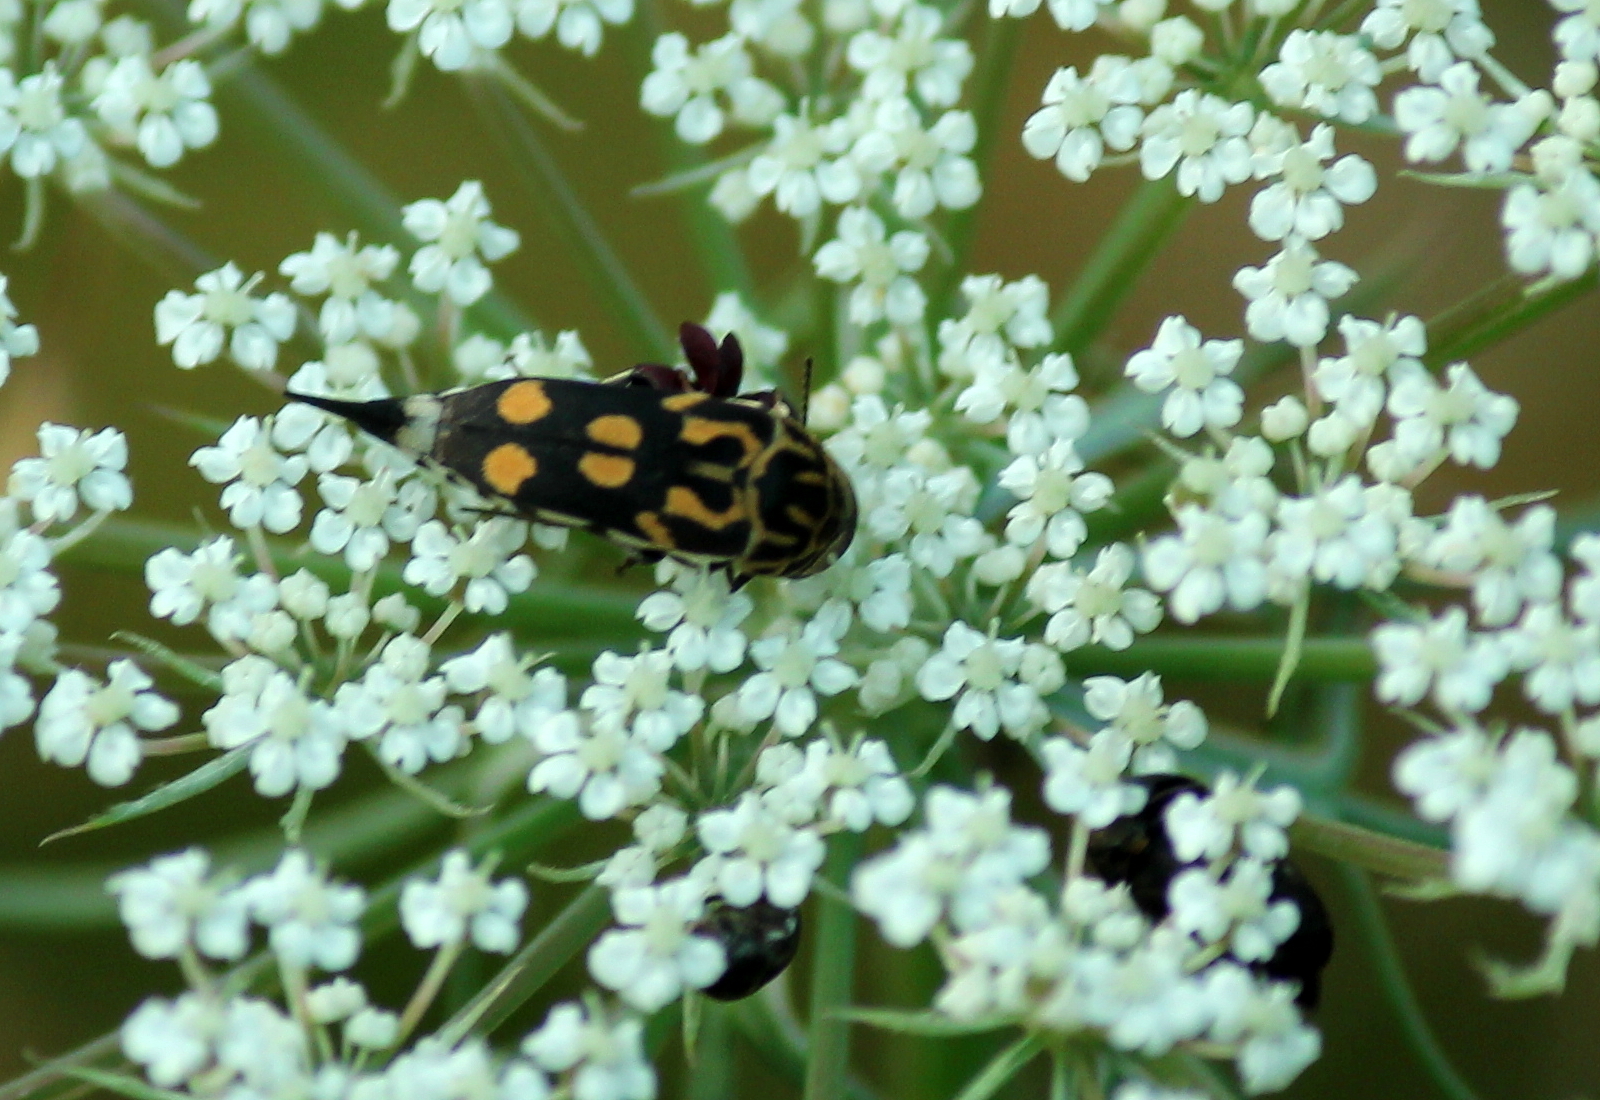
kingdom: Animalia
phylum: Arthropoda
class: Insecta
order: Coleoptera
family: Mordellidae
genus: Hoshihananomia
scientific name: Hoshihananomia octopunctata
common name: Eight-spotted tumbling flower beetle
